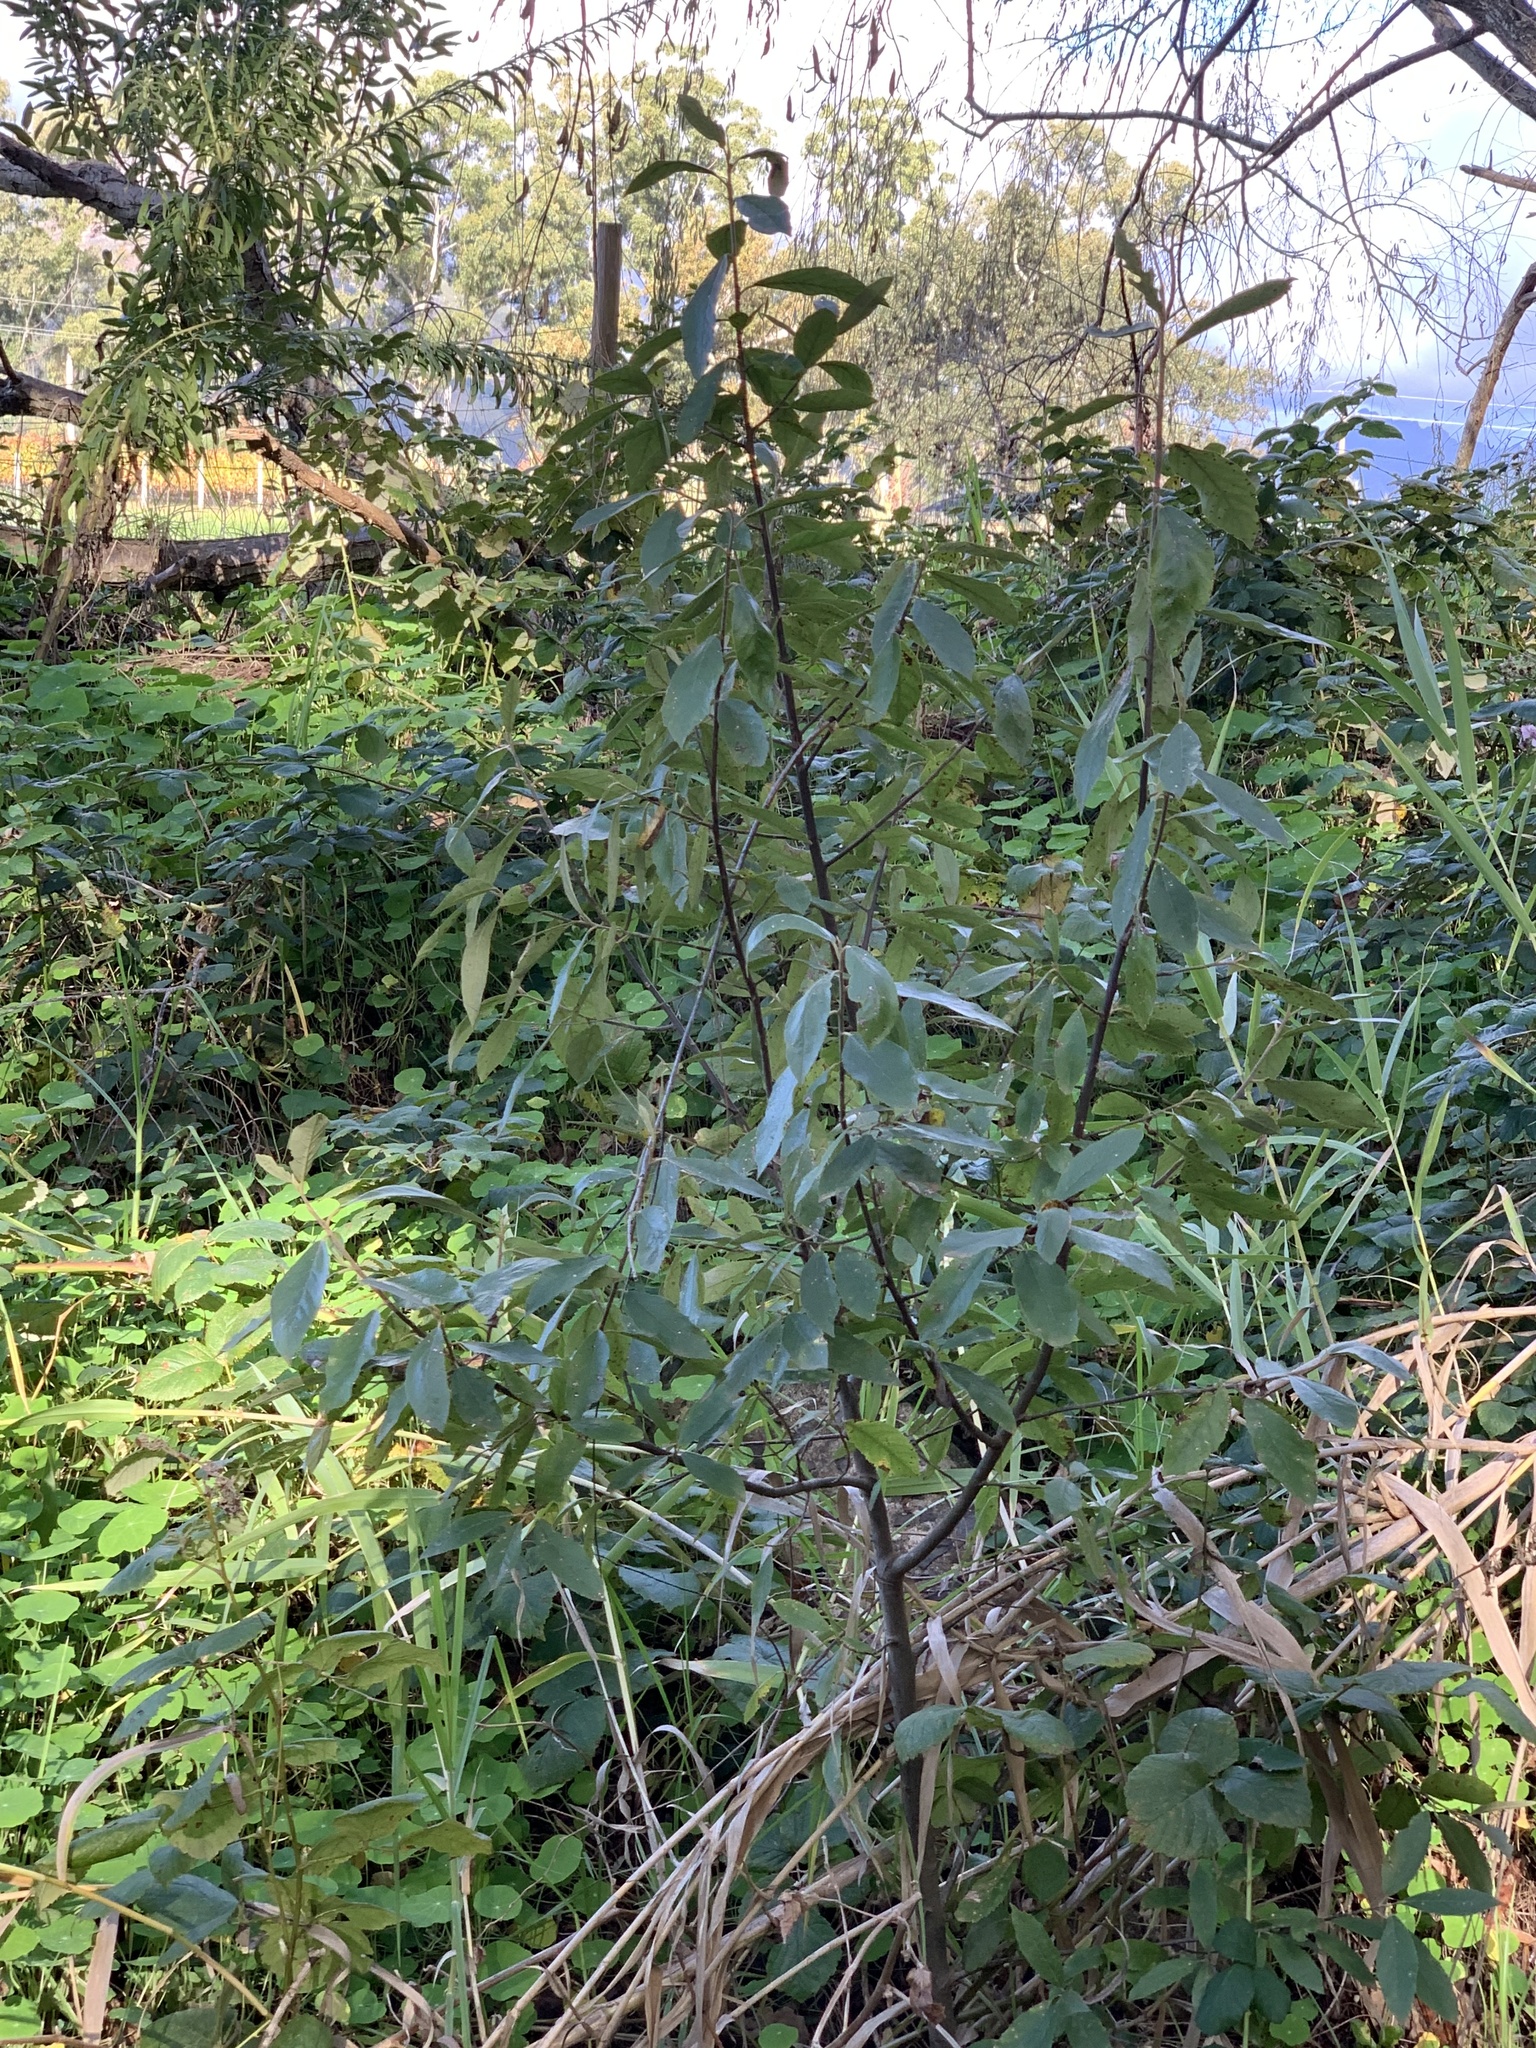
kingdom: Plantae
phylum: Tracheophyta
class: Magnoliopsida
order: Malpighiales
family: Achariaceae
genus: Kiggelaria
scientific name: Kiggelaria africana
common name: Wild peach
